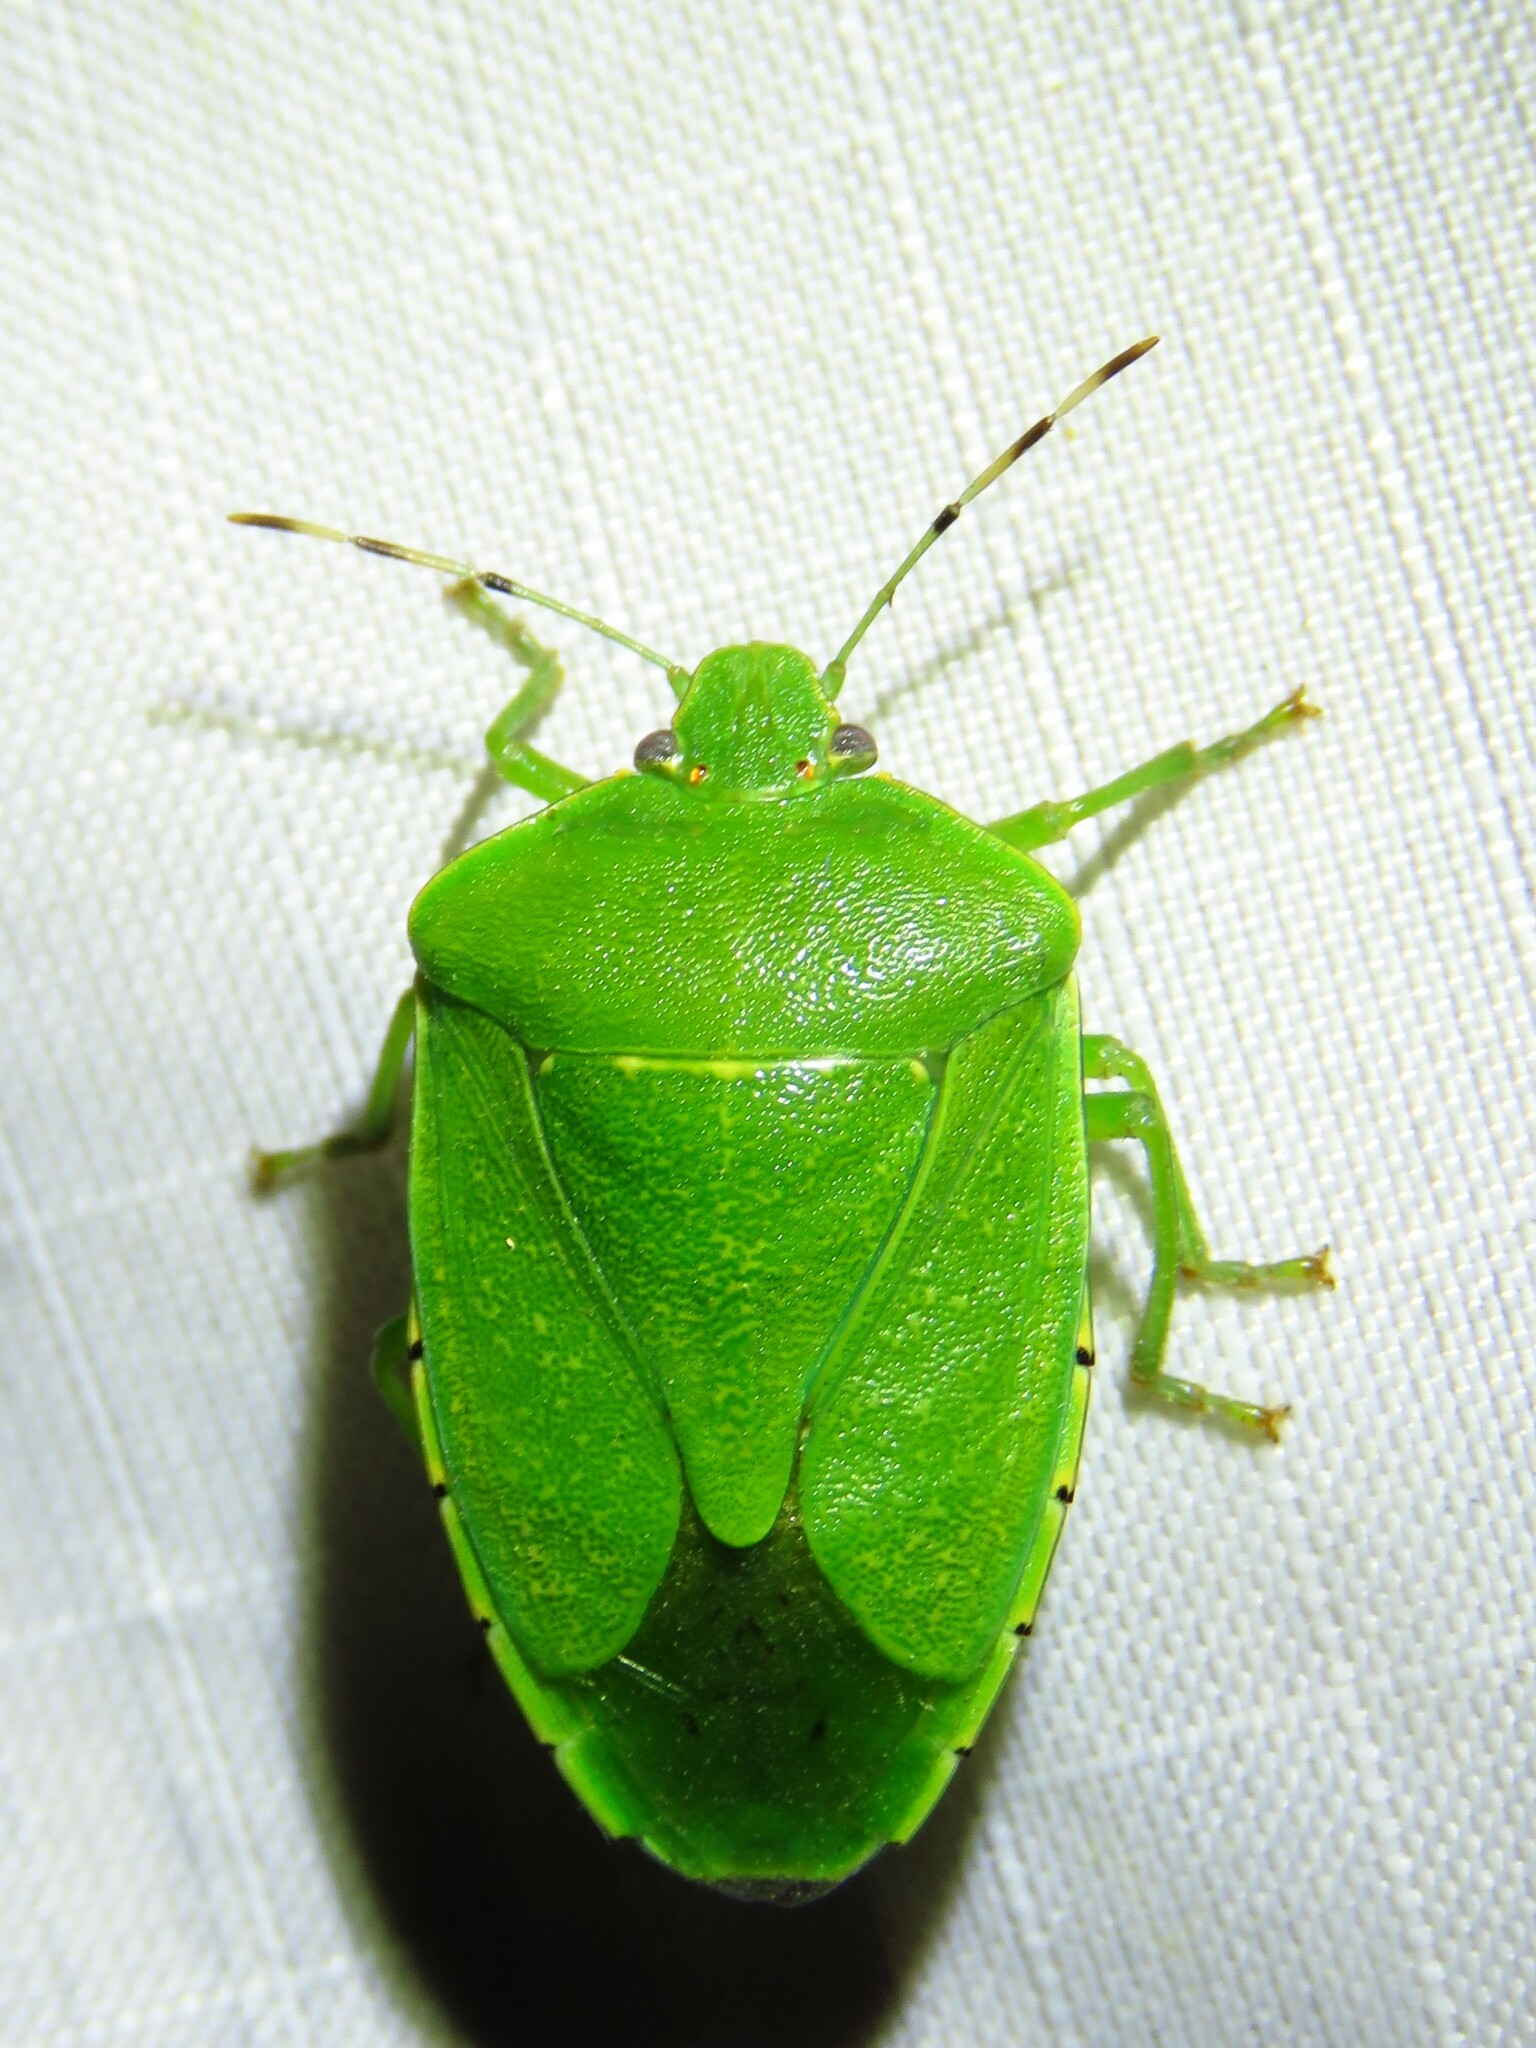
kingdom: Animalia
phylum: Arthropoda
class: Insecta
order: Hemiptera
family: Pentatomidae
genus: Chinavia
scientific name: Chinavia hilaris
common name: Green stink bug
